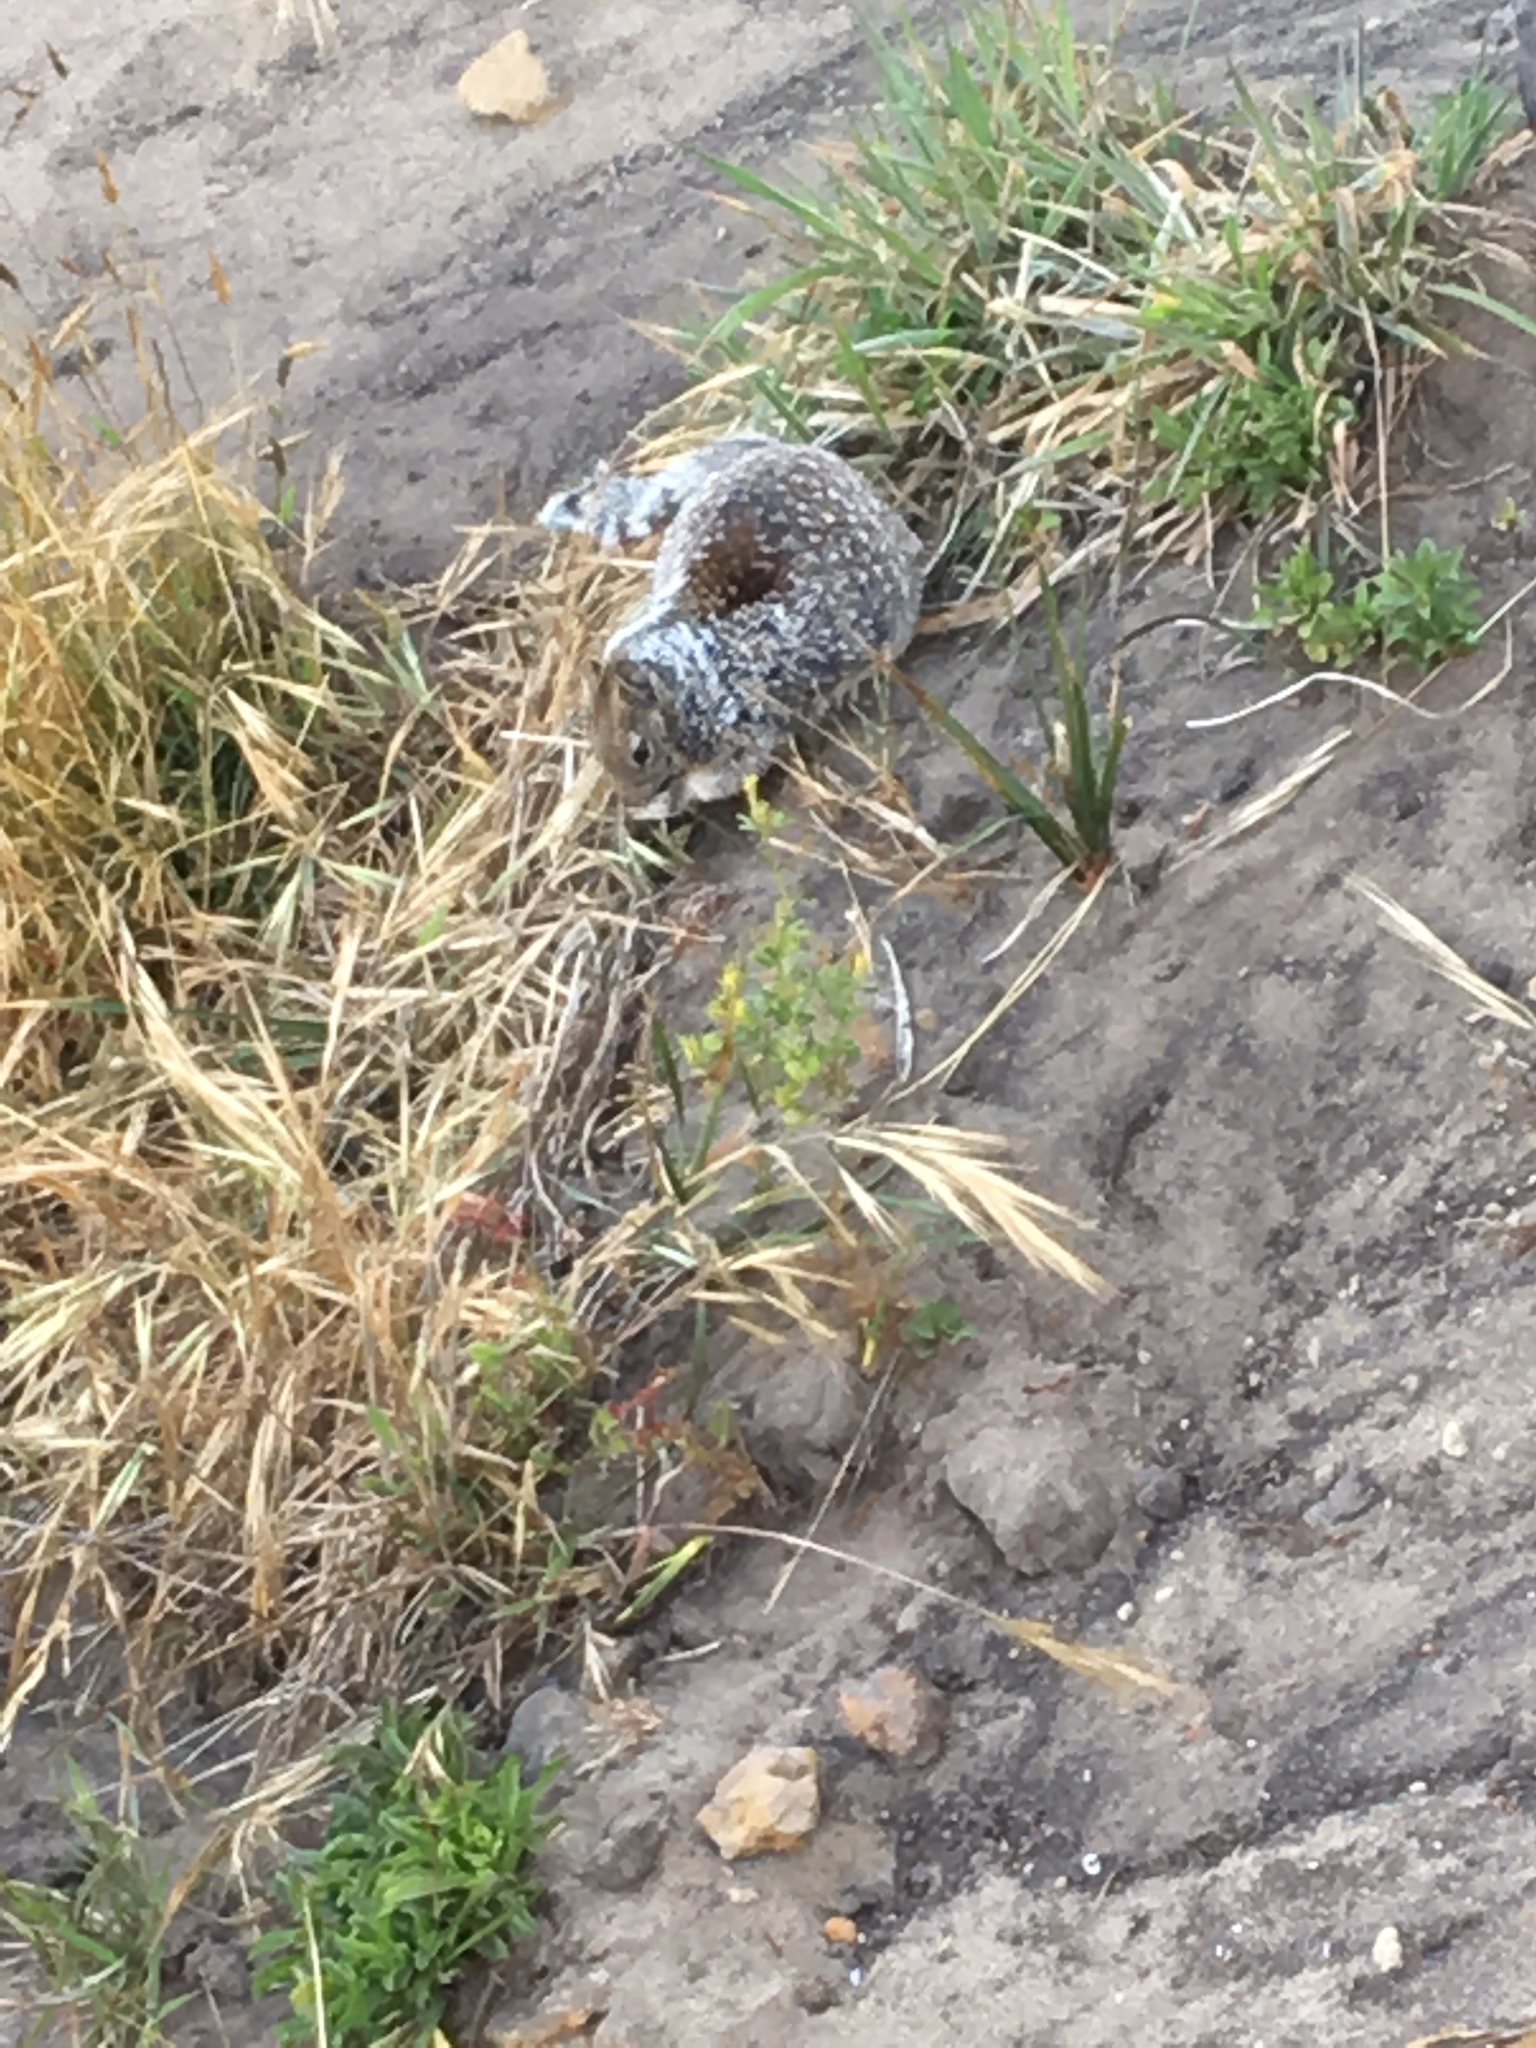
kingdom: Animalia
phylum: Chordata
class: Mammalia
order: Rodentia
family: Sciuridae
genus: Otospermophilus
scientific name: Otospermophilus beecheyi
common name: California ground squirrel
